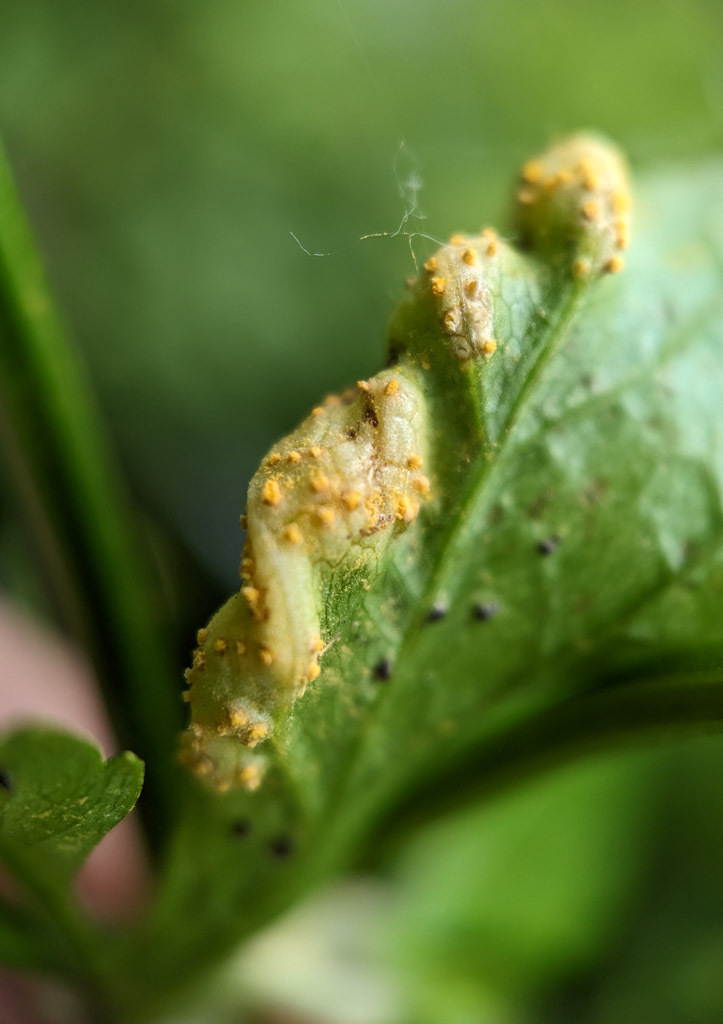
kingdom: Fungi
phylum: Basidiomycota
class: Pucciniomycetes
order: Pucciniales
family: Pucciniaceae
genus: Puccinia
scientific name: Puccinia smyrnii
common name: Alexanders rust
